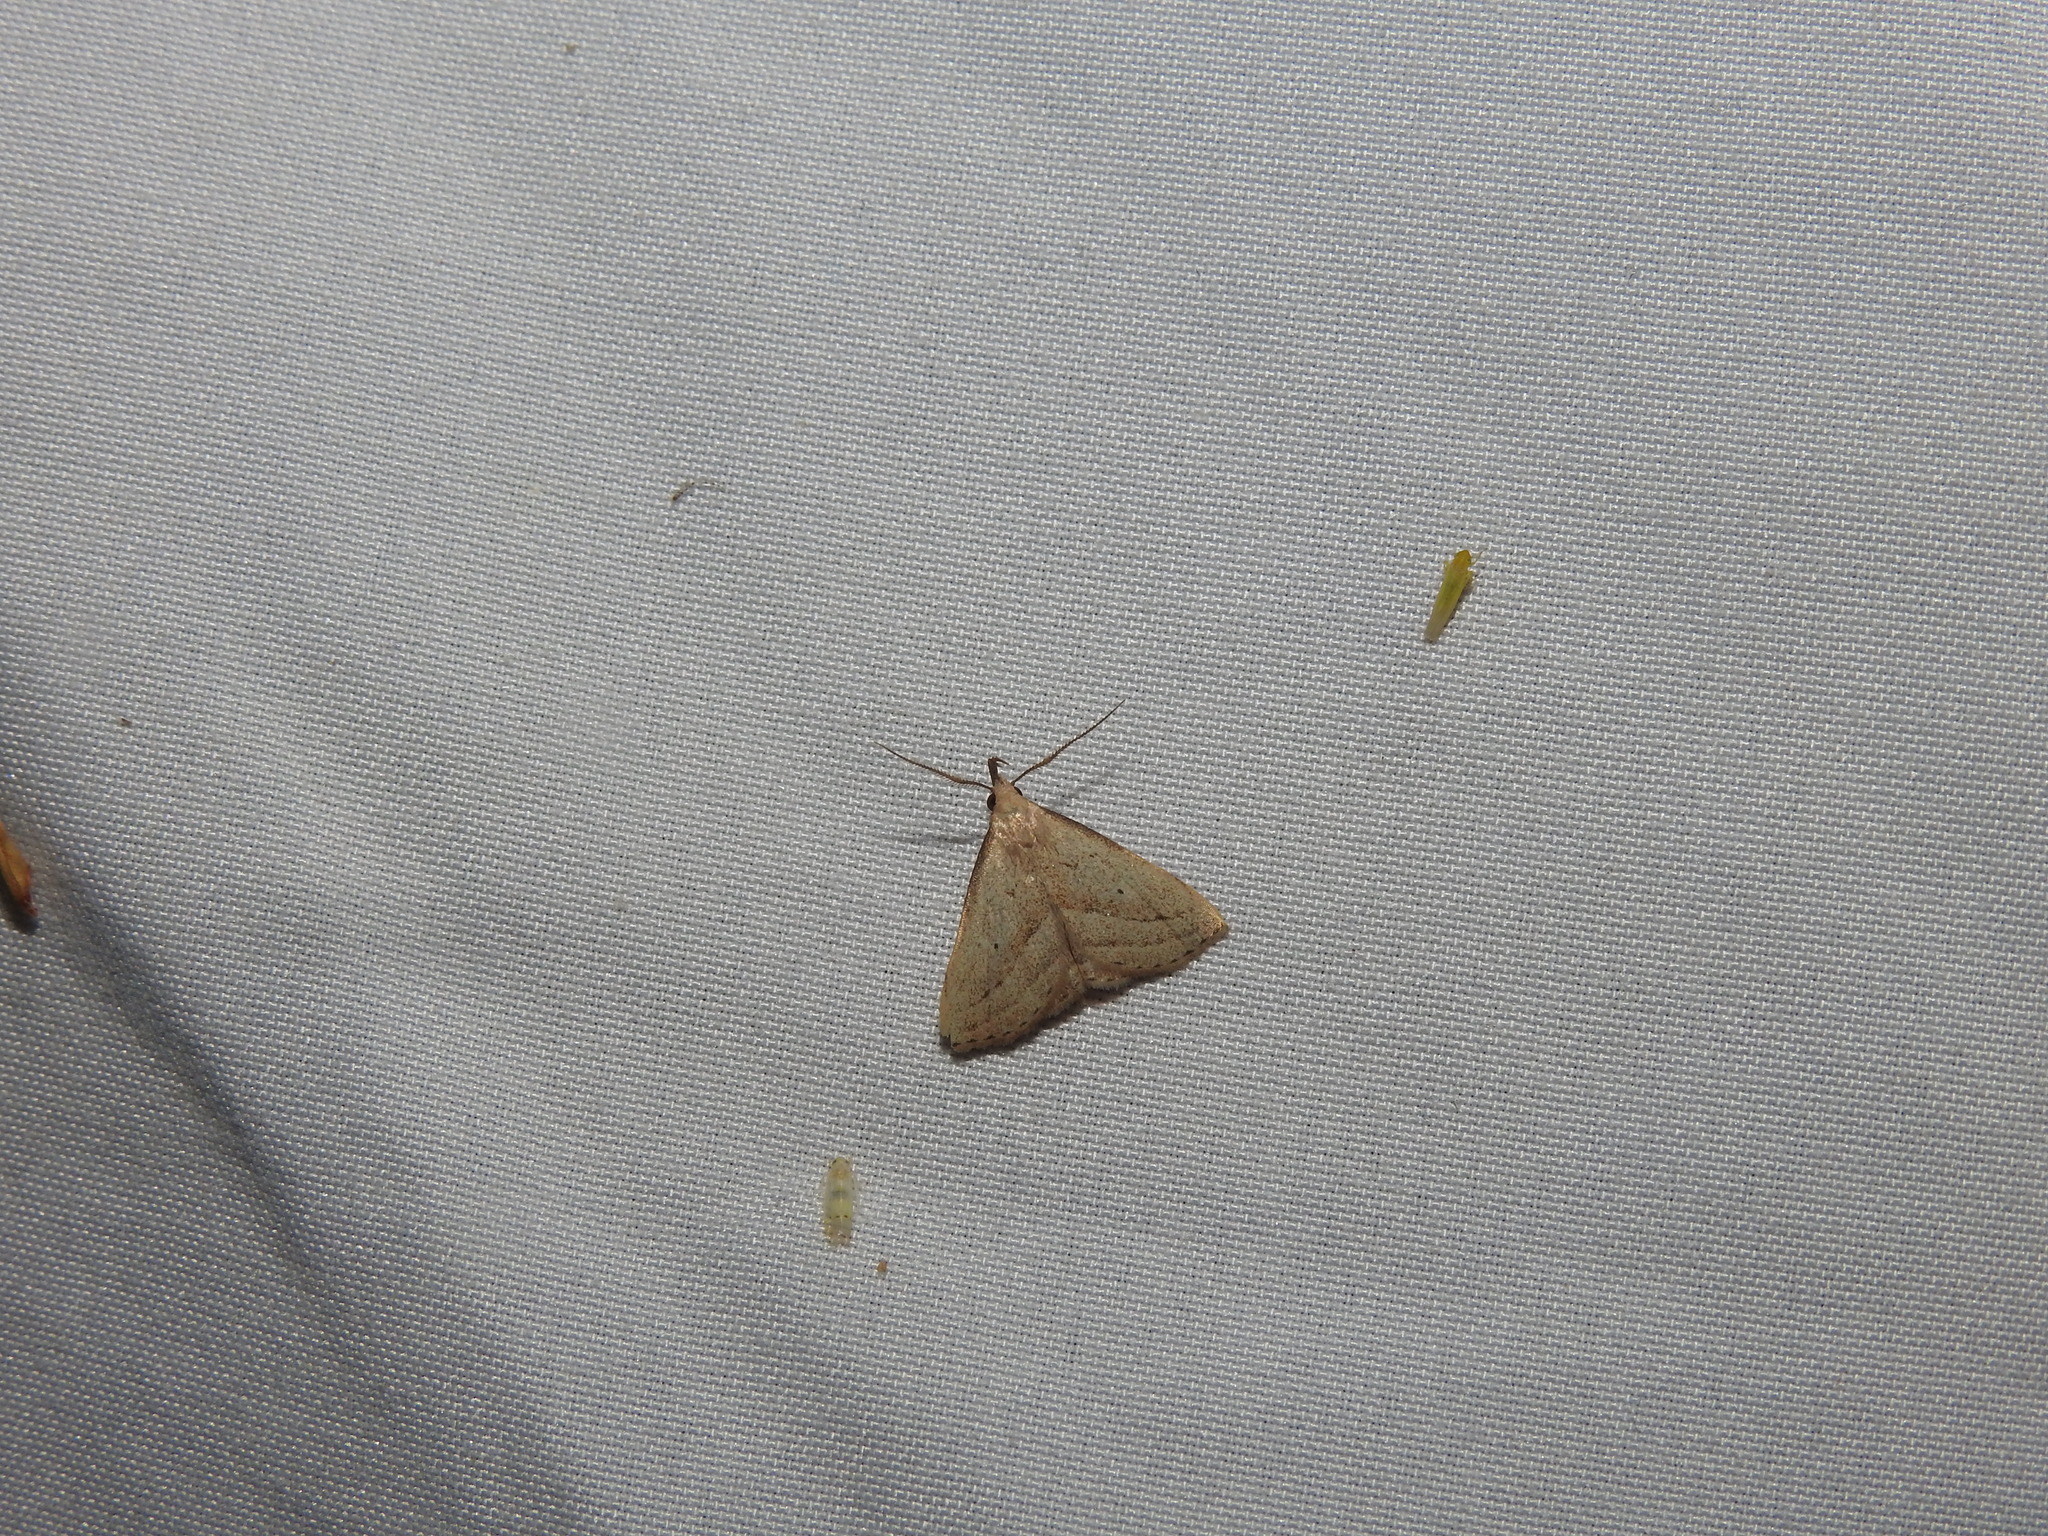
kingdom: Animalia
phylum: Arthropoda
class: Insecta
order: Lepidoptera
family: Erebidae
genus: Macrochilo
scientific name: Macrochilo hypocritalis
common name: Twin-dotted owlet
